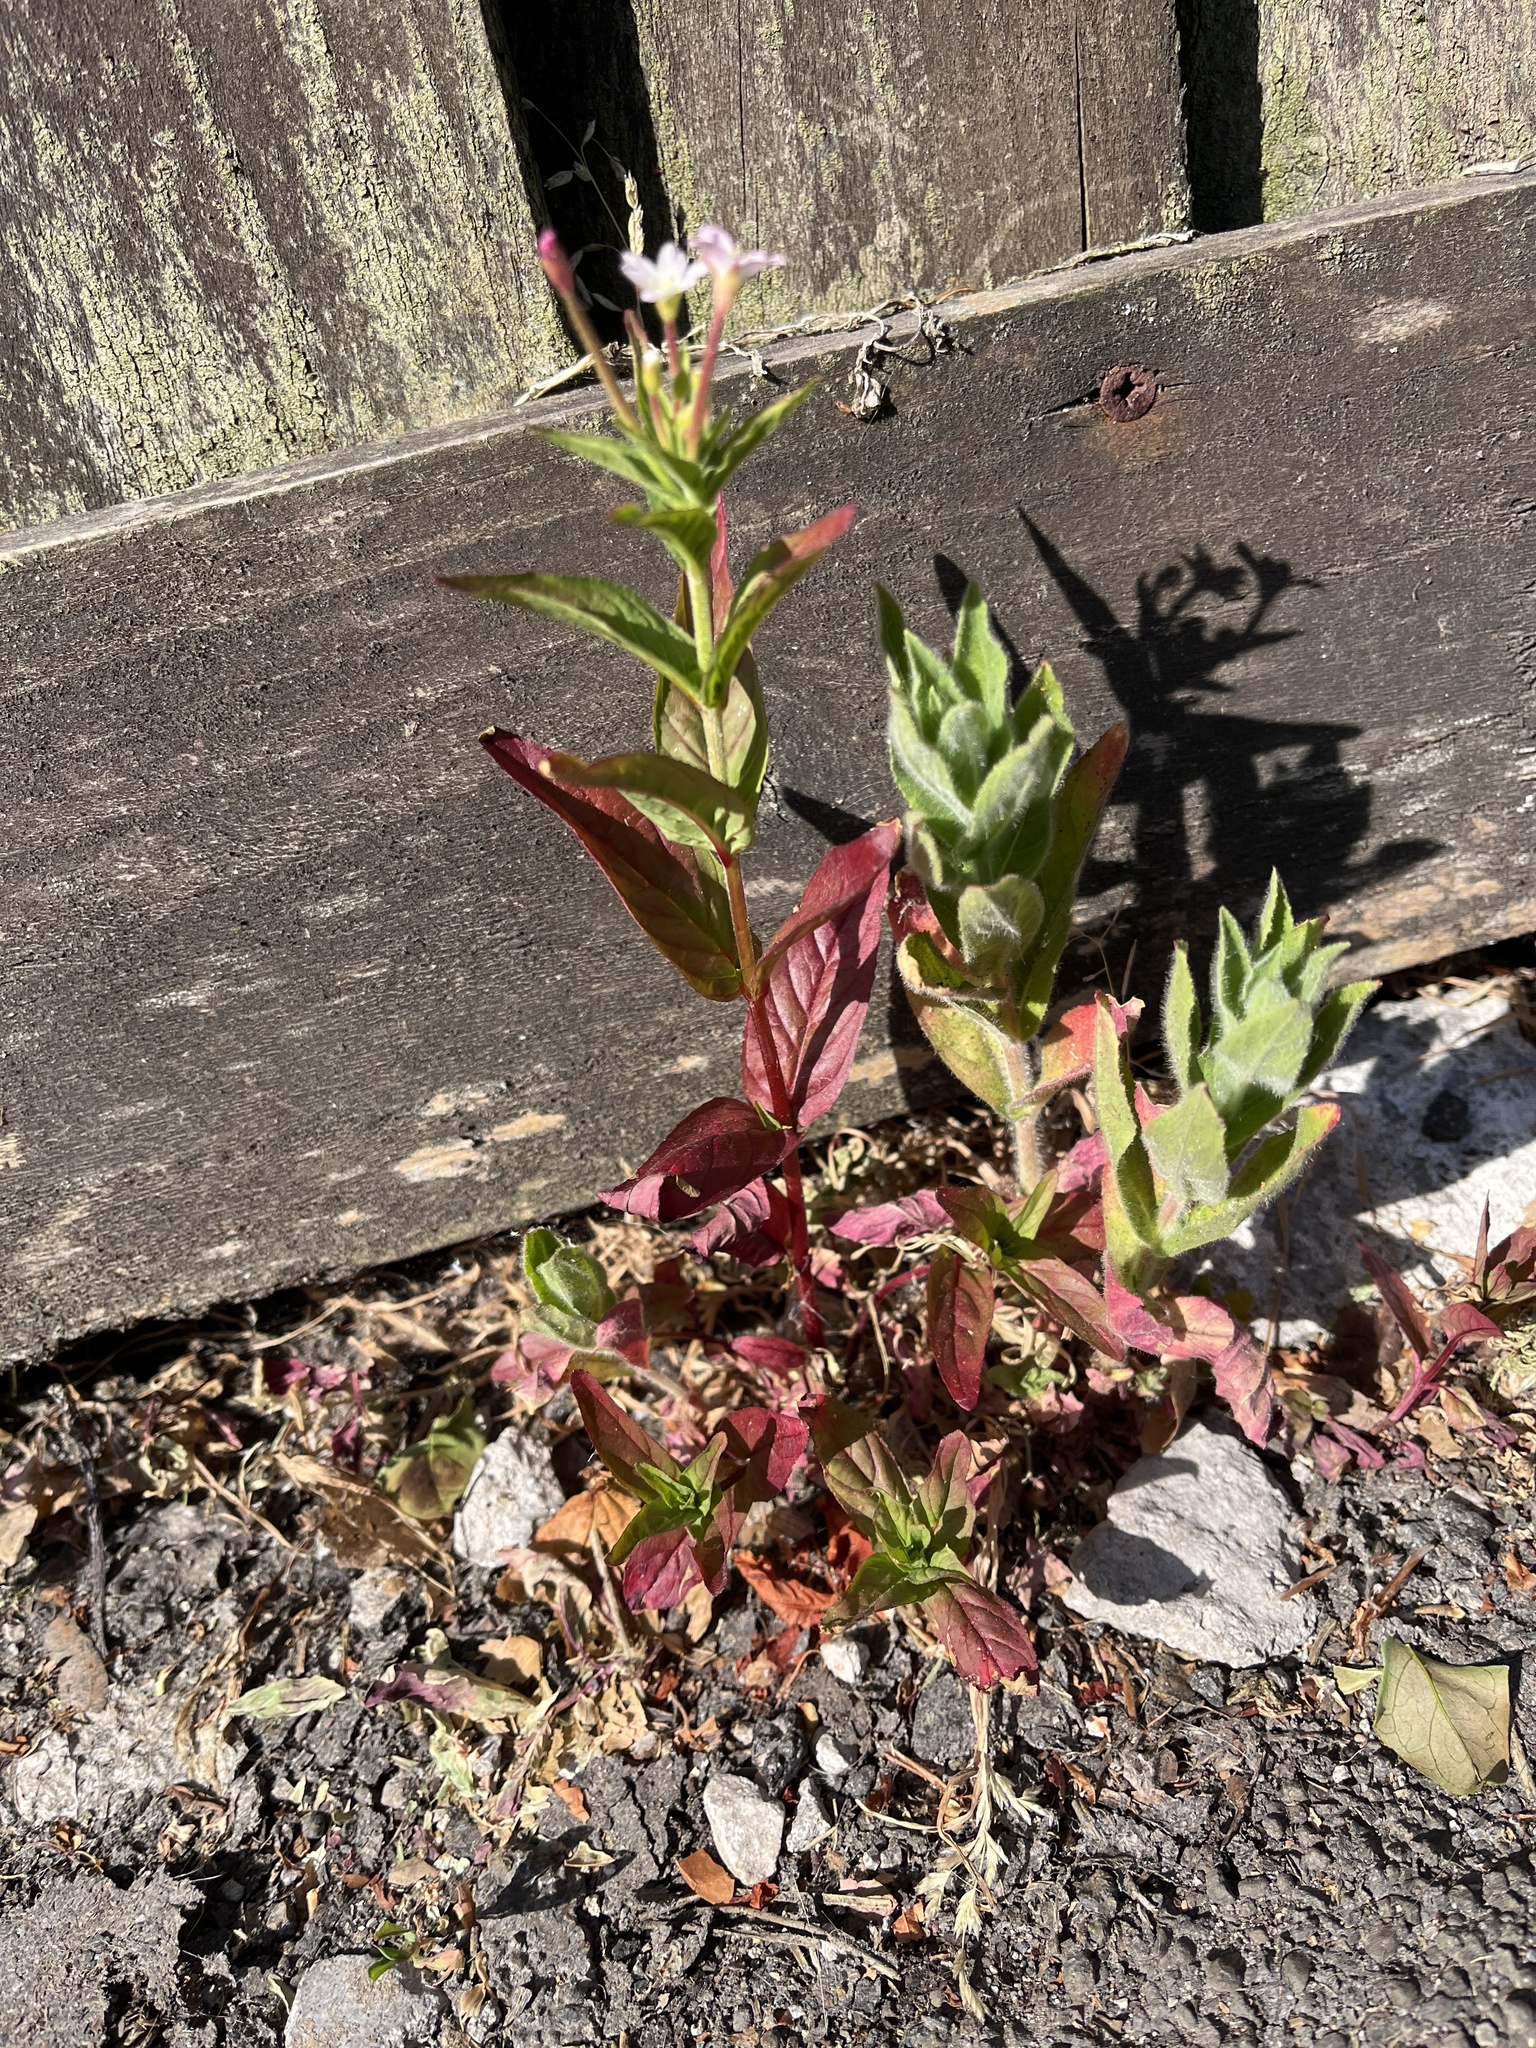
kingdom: Plantae
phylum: Tracheophyta
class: Magnoliopsida
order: Myrtales
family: Onagraceae
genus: Epilobium
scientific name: Epilobium ciliatum
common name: American willowherb
